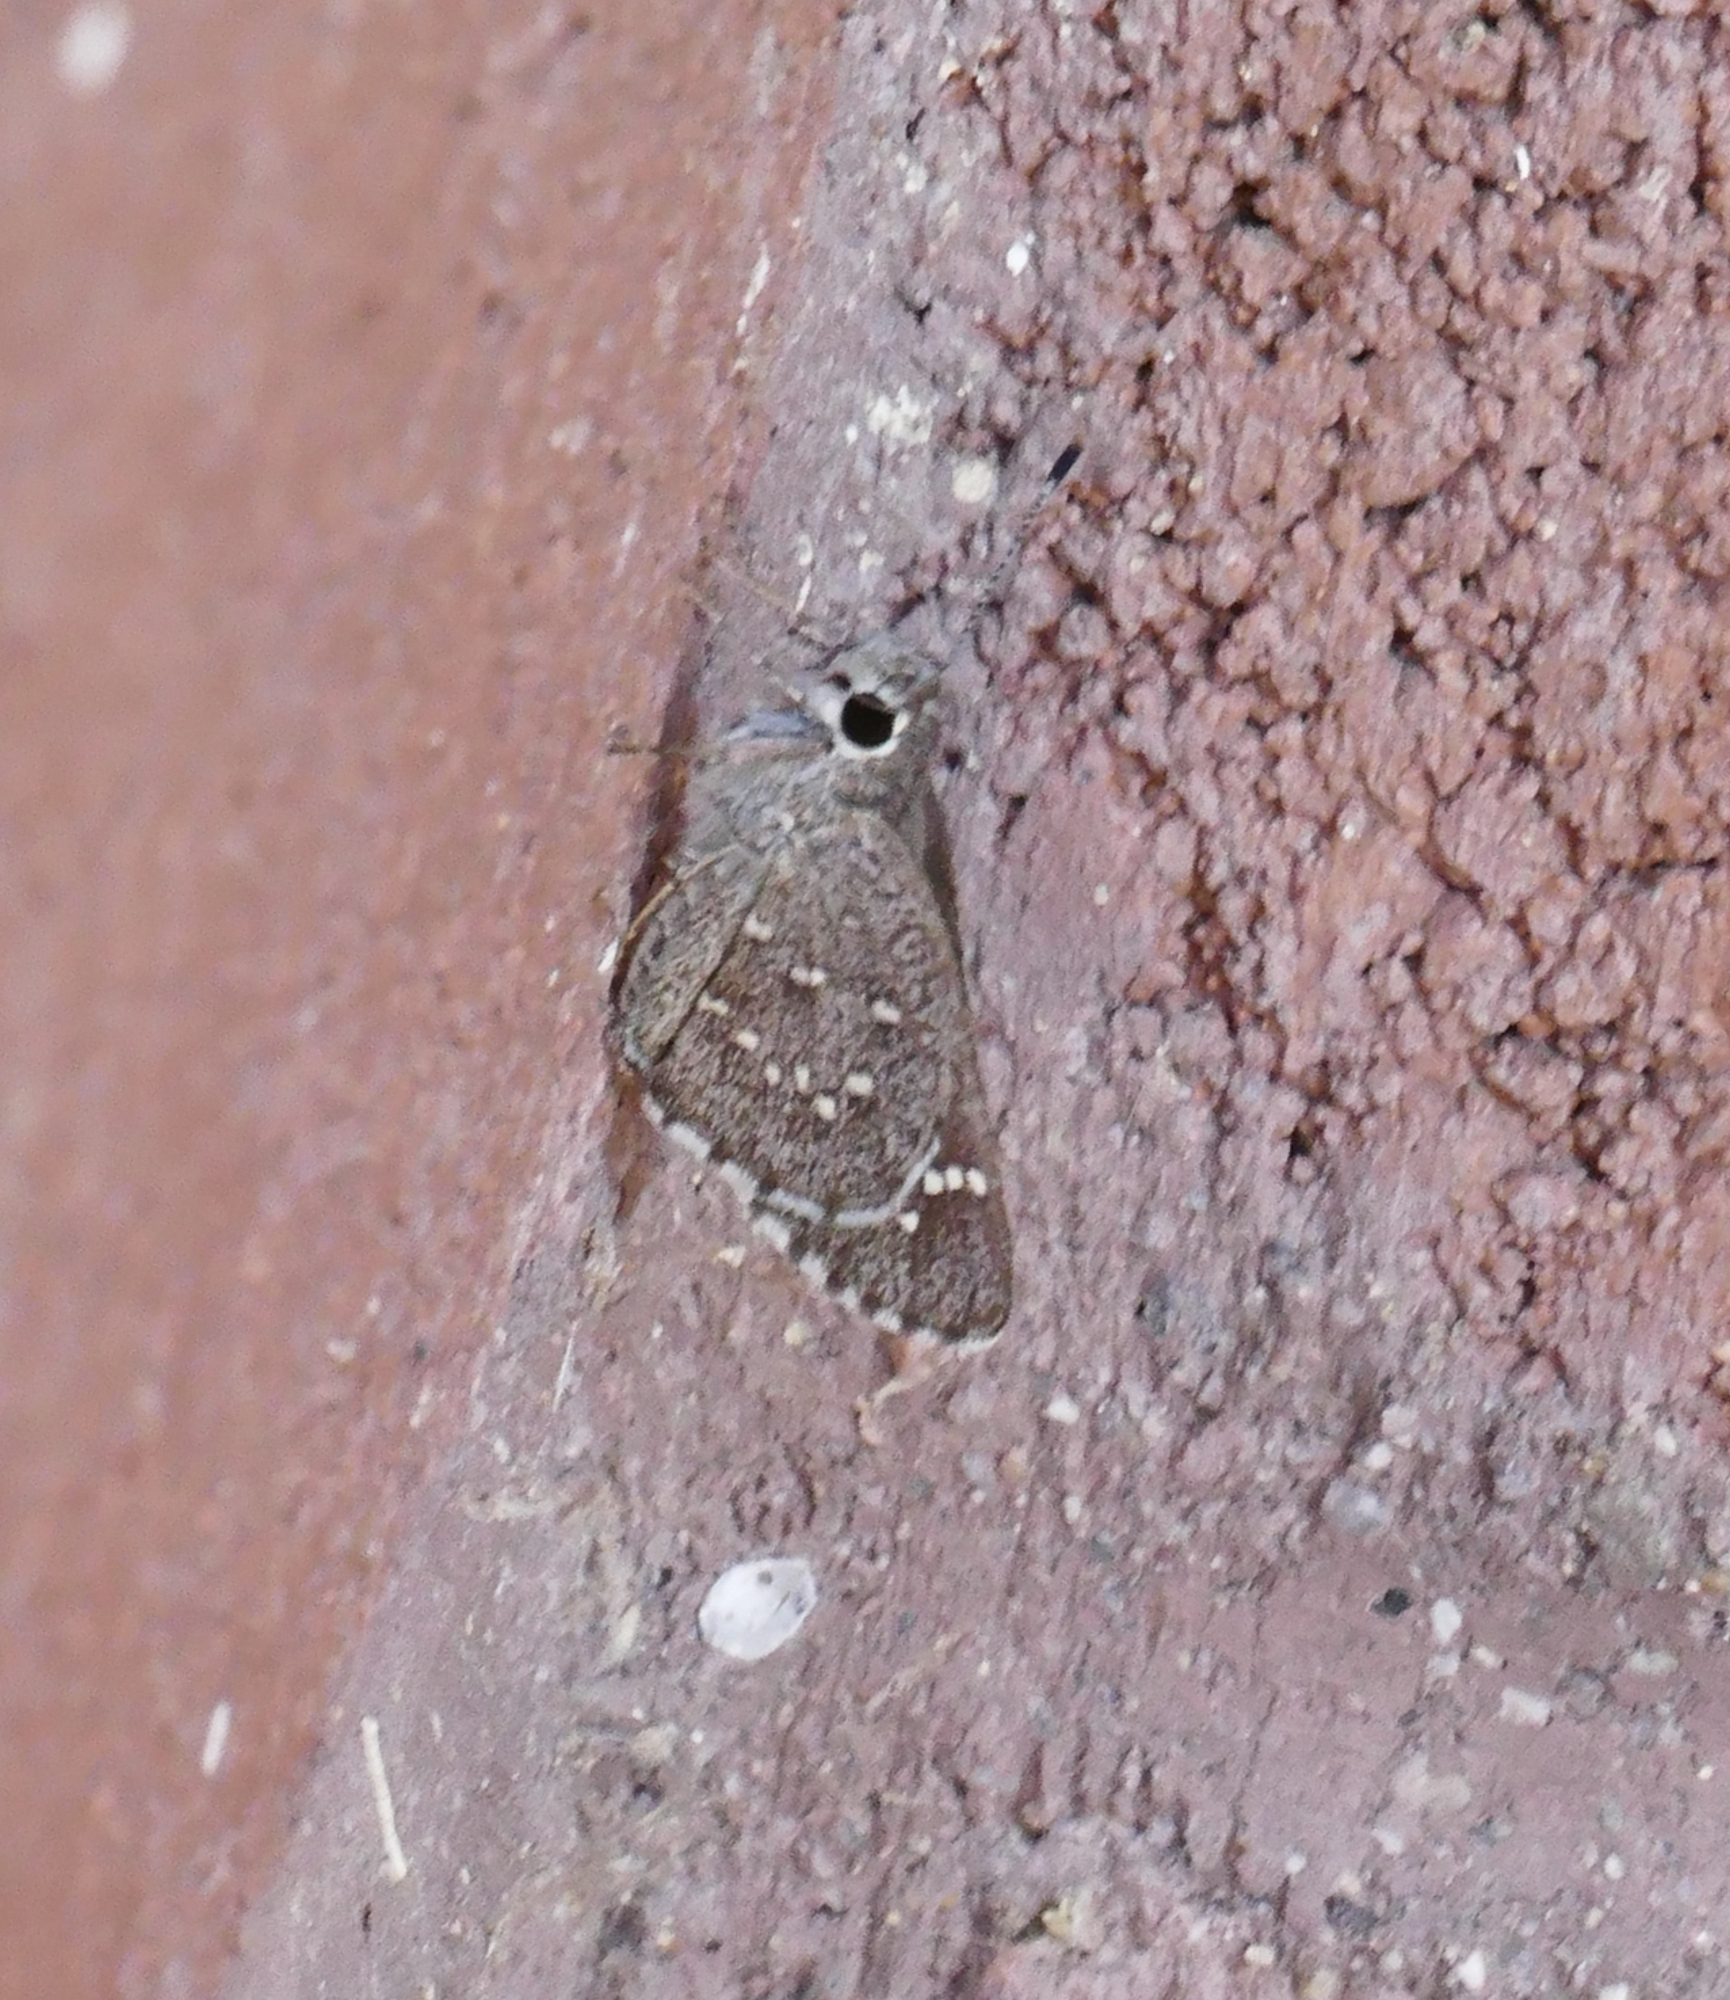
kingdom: Animalia
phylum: Arthropoda
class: Insecta
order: Lepidoptera
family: Hesperiidae
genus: Mastor
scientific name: Mastor tolteca
